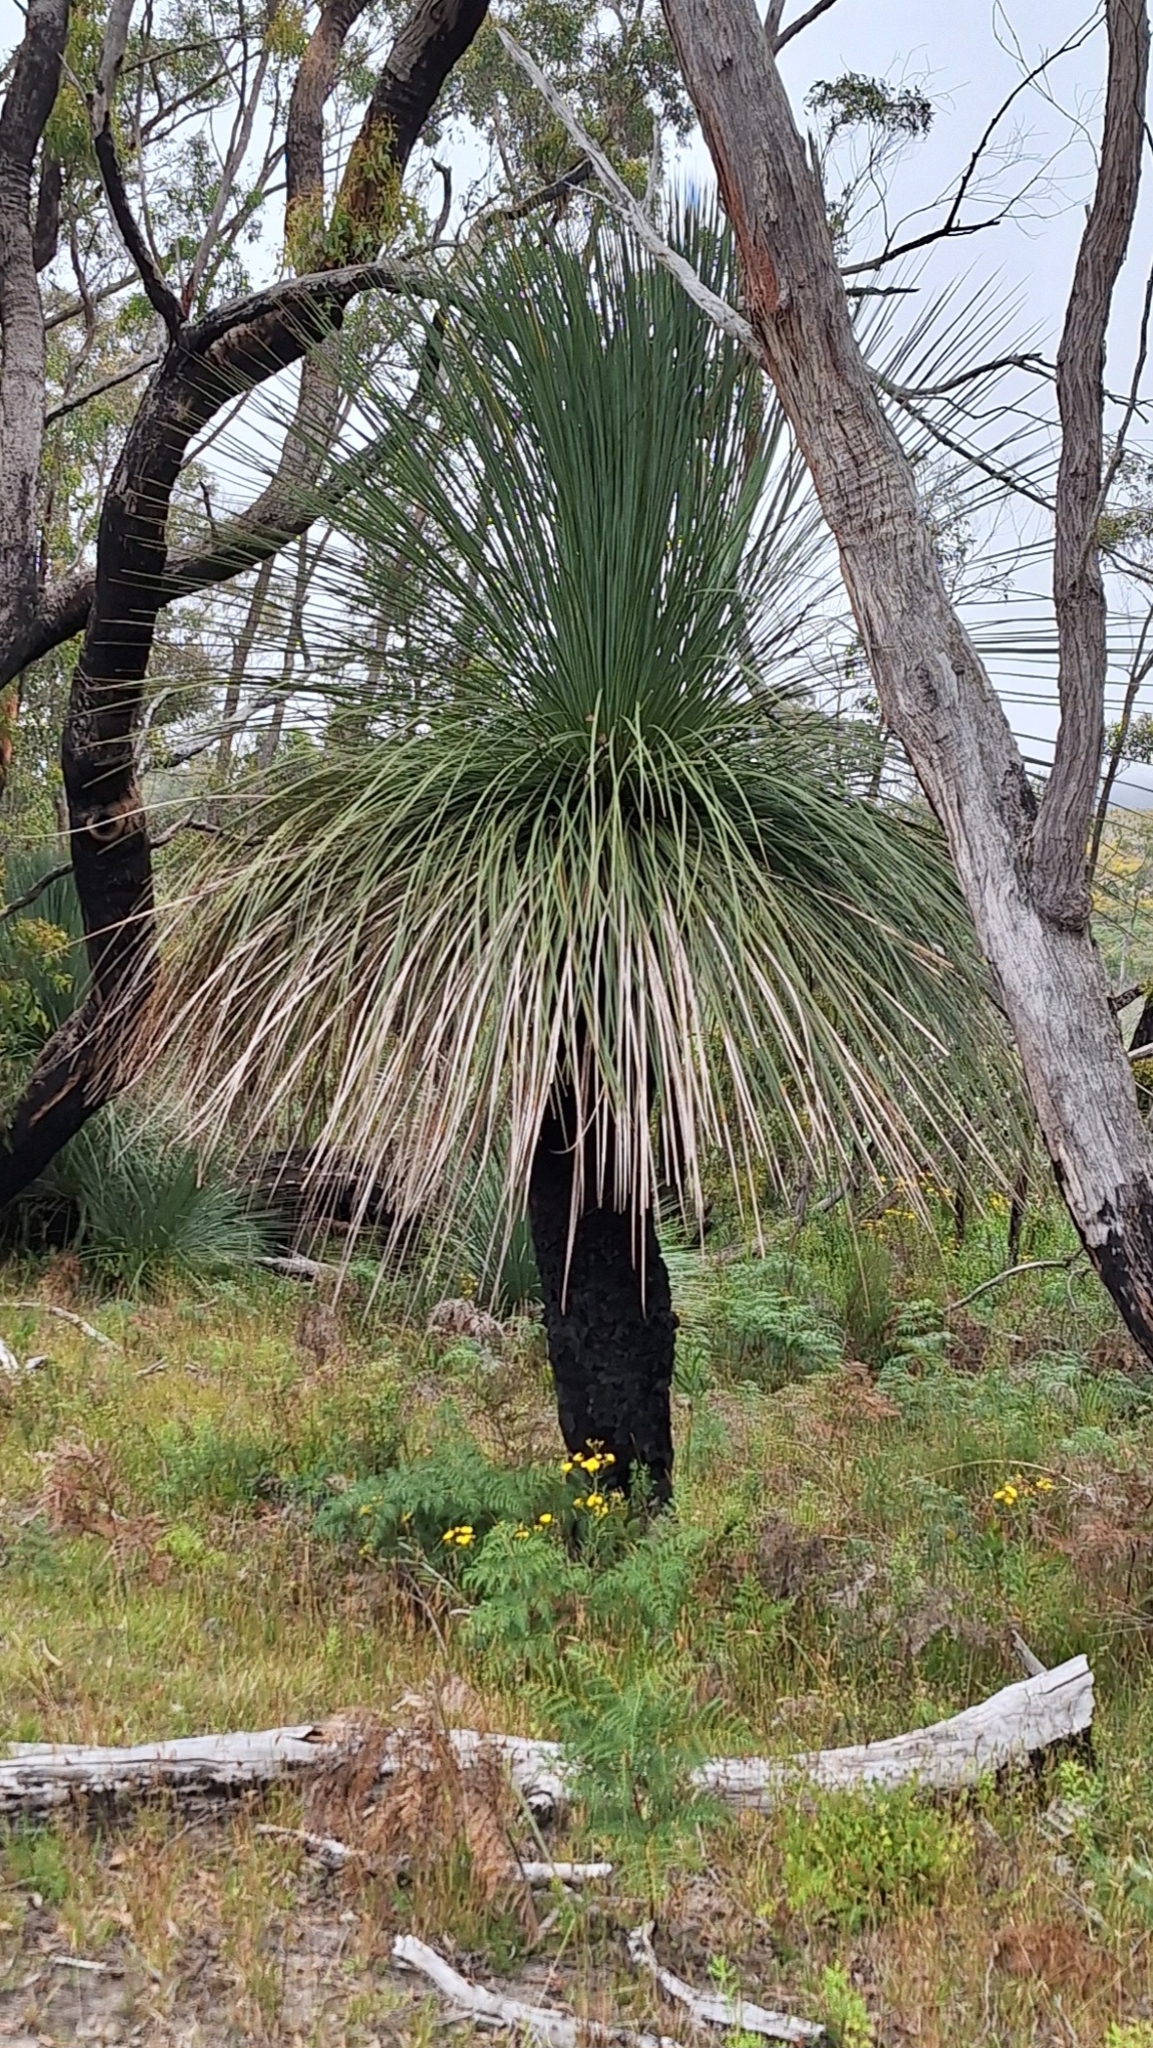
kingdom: Plantae
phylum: Tracheophyta
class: Liliopsida
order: Asparagales
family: Asphodelaceae
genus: Xanthorrhoea
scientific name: Xanthorrhoea semiplana
